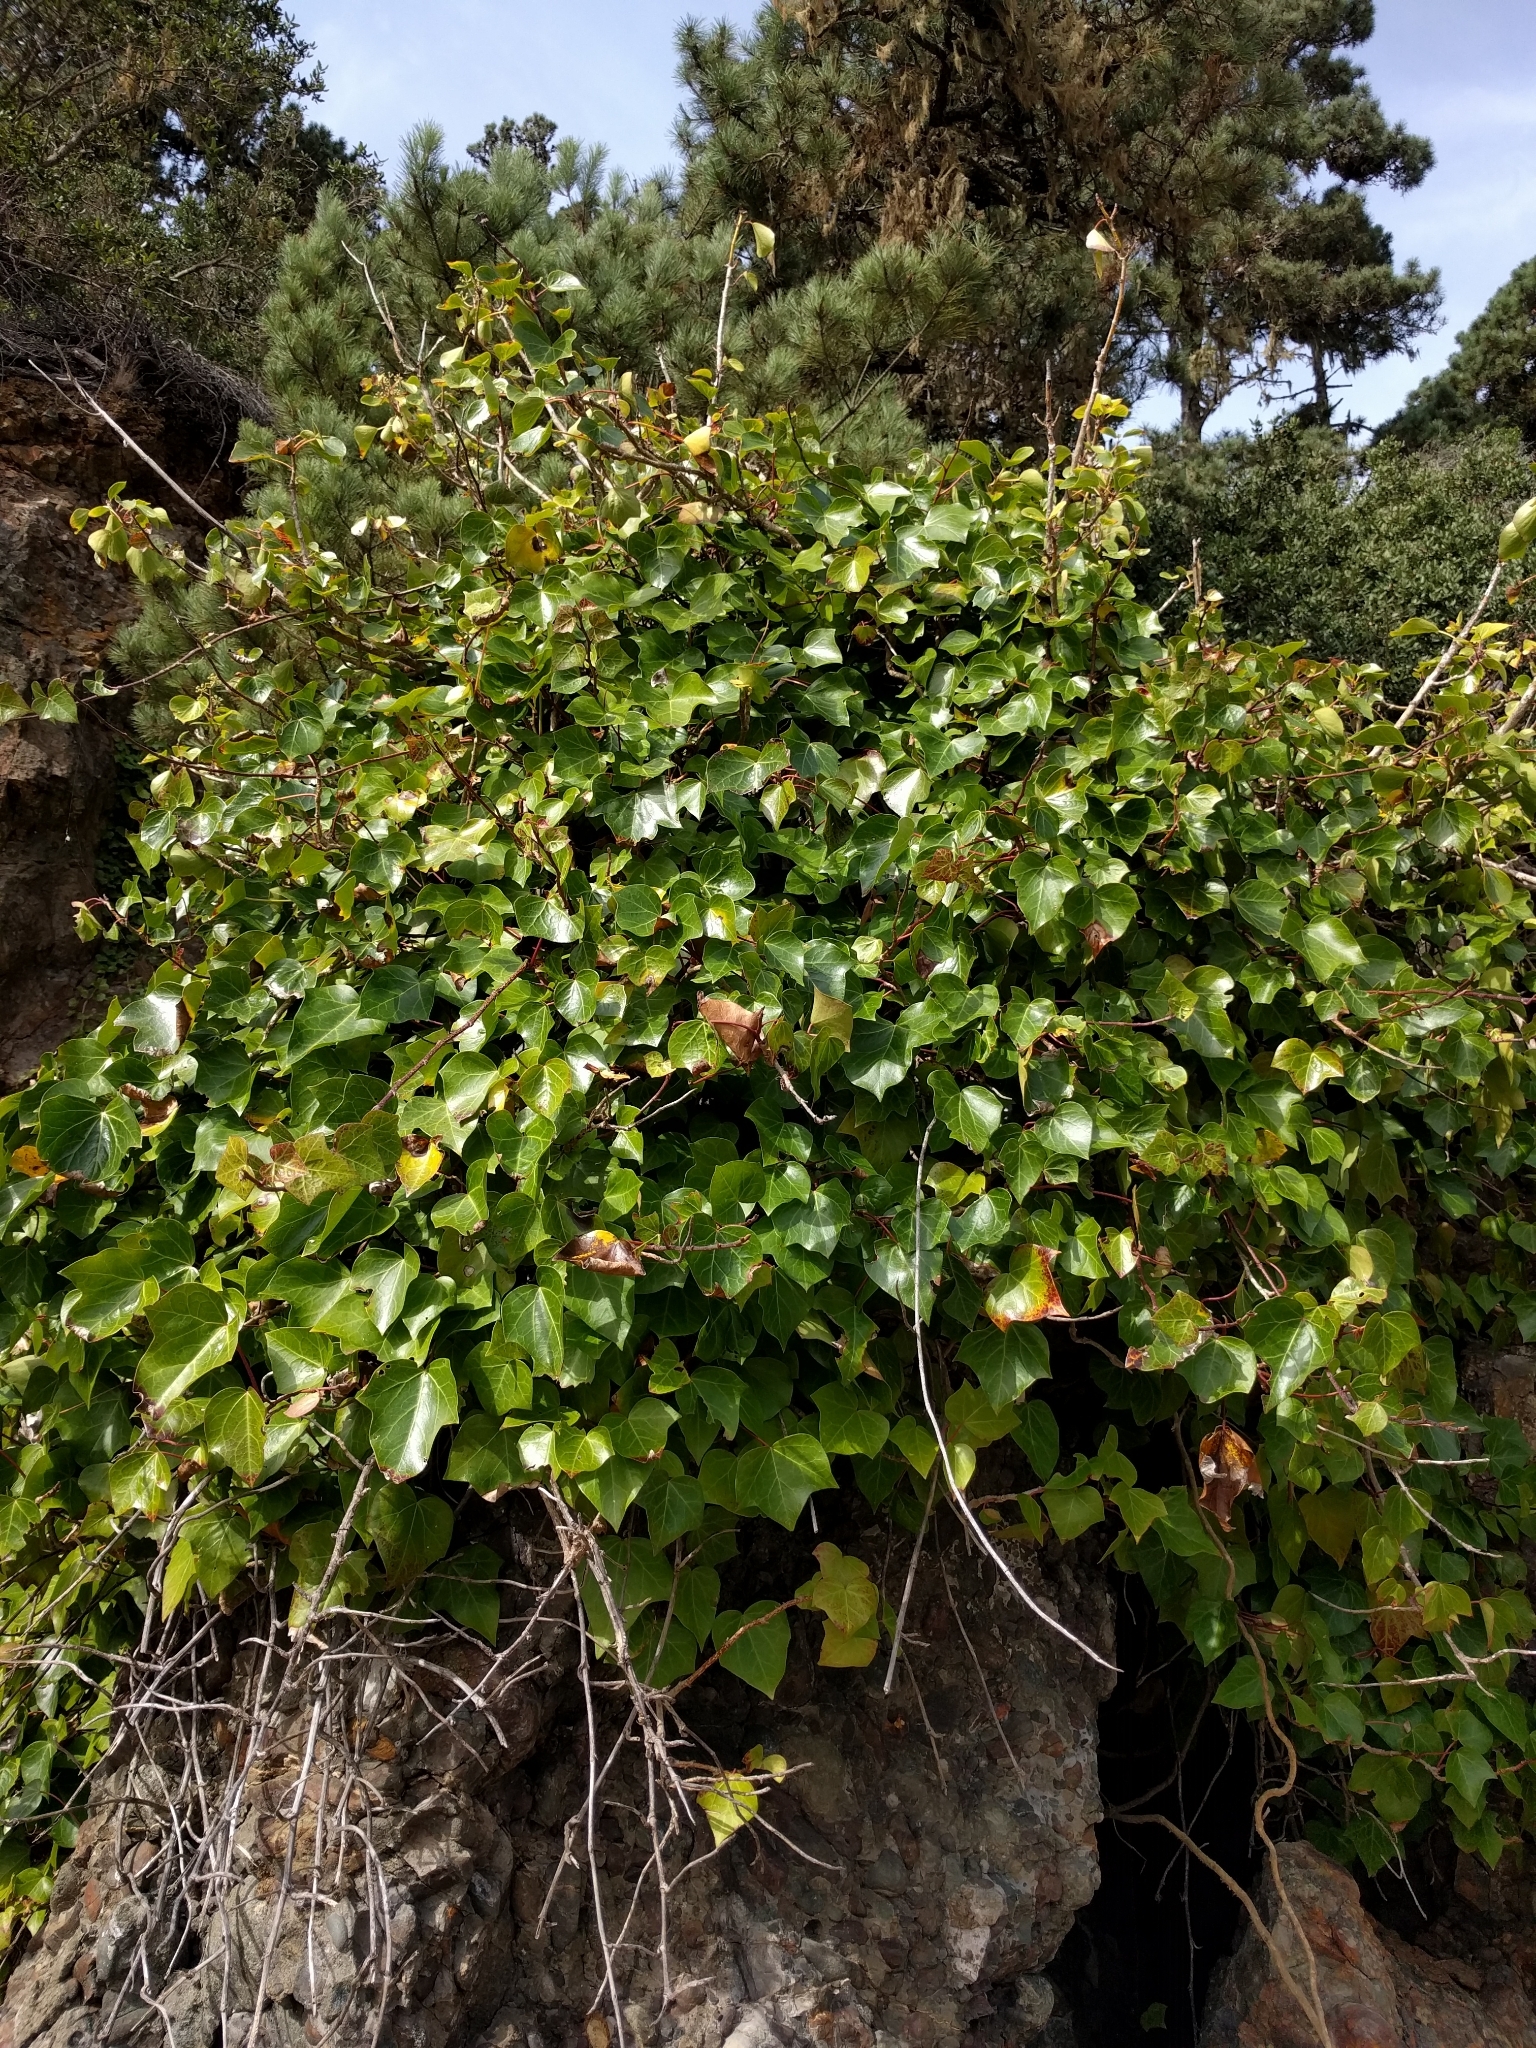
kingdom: Plantae
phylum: Tracheophyta
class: Magnoliopsida
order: Apiales
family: Araliaceae
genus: Hedera
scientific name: Hedera canariensis
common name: Madeira ivy
